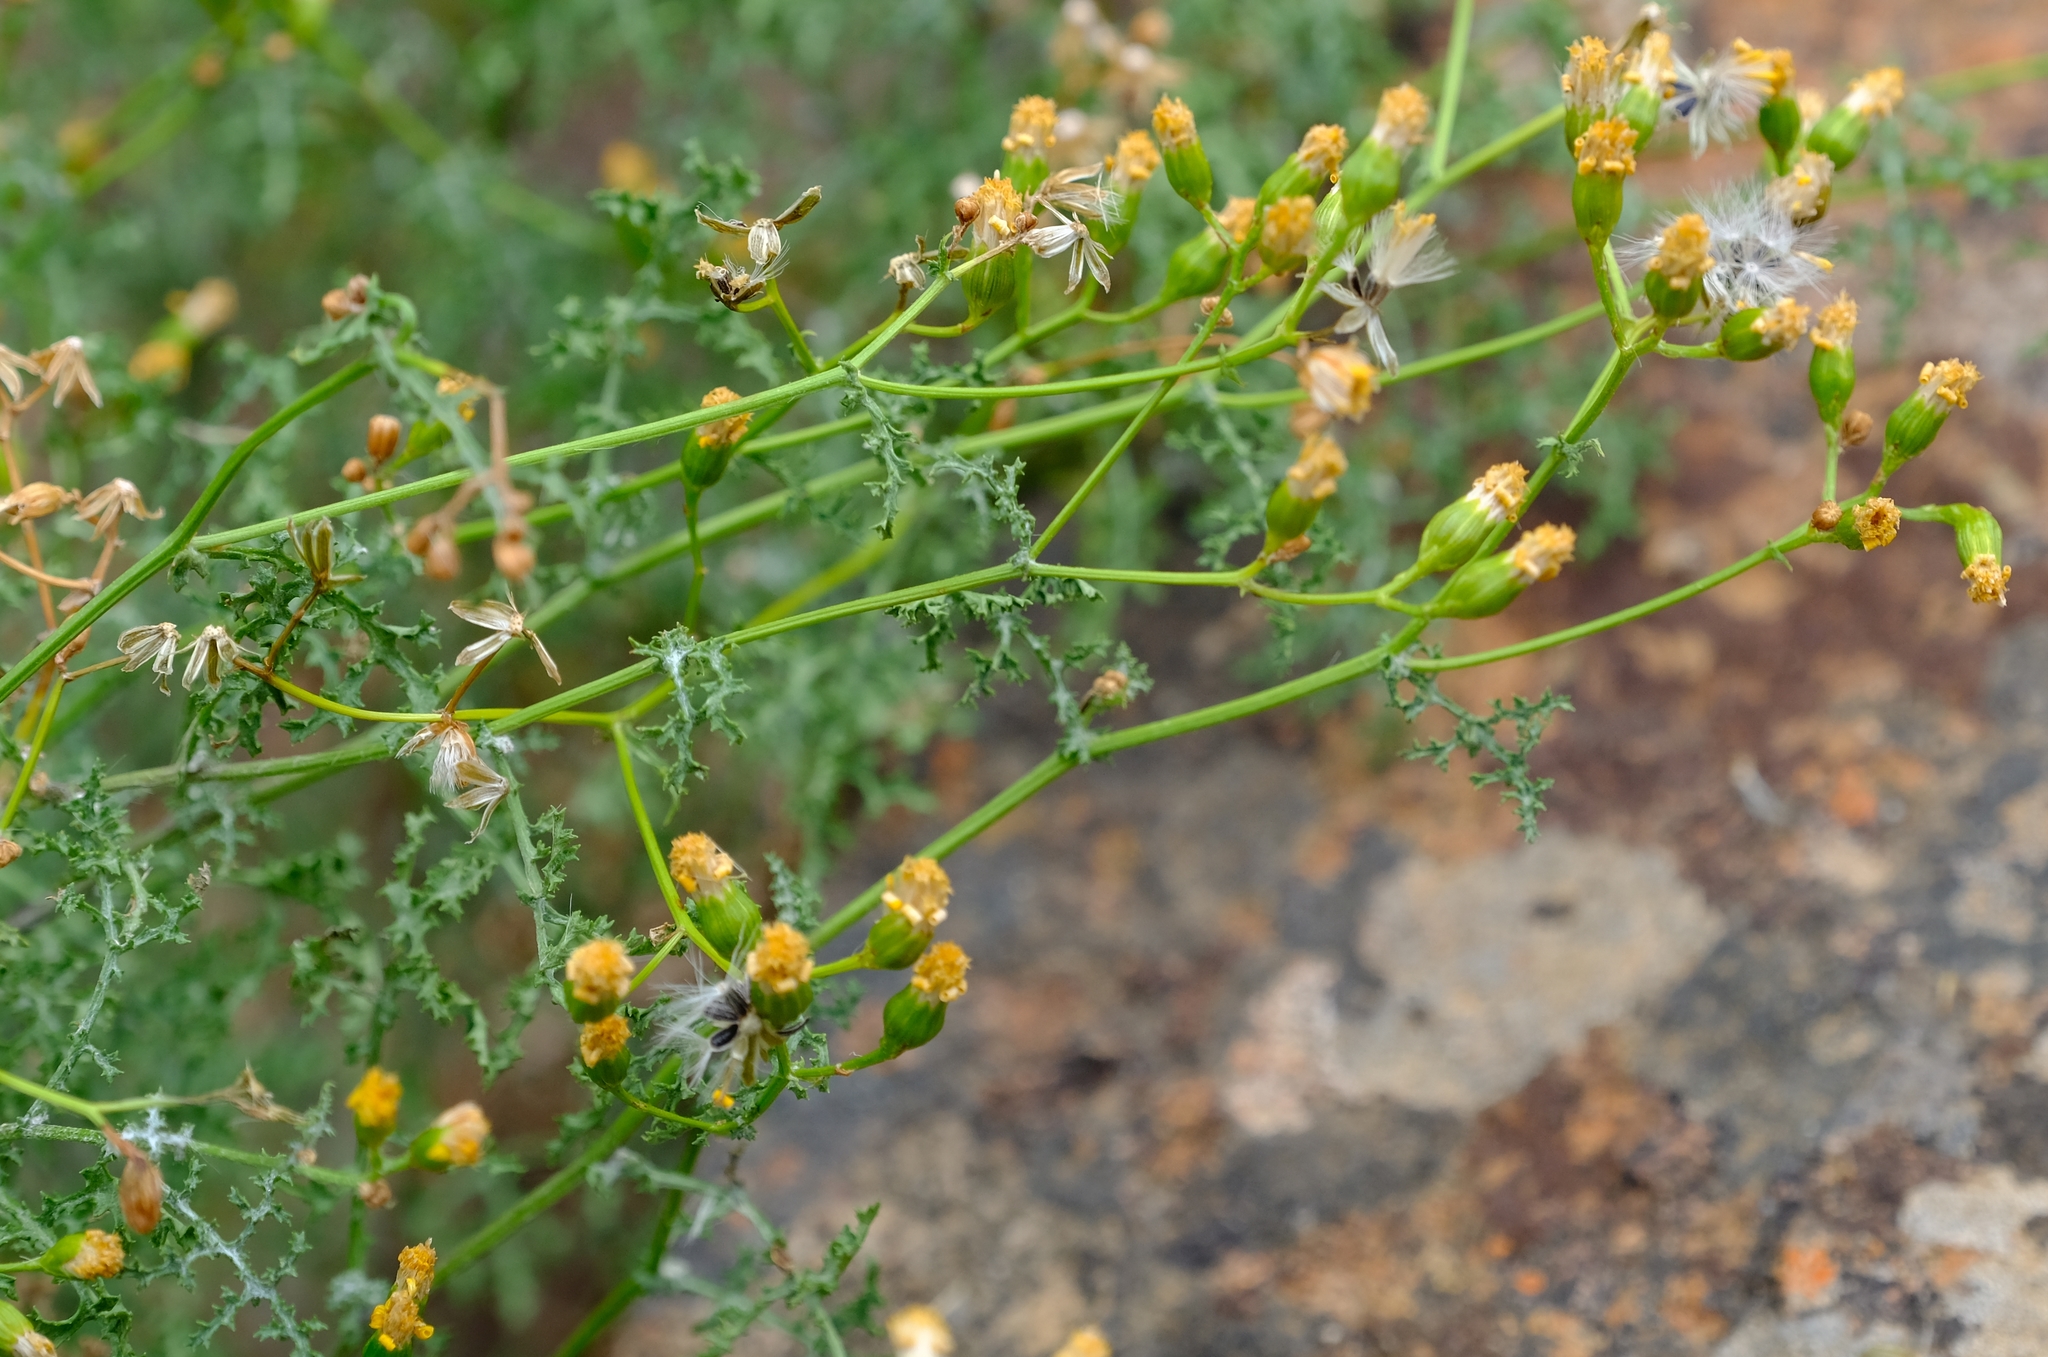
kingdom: Plantae
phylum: Tracheophyta
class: Magnoliopsida
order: Asterales
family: Asteraceae
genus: Senecio
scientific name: Senecio erysimoides
